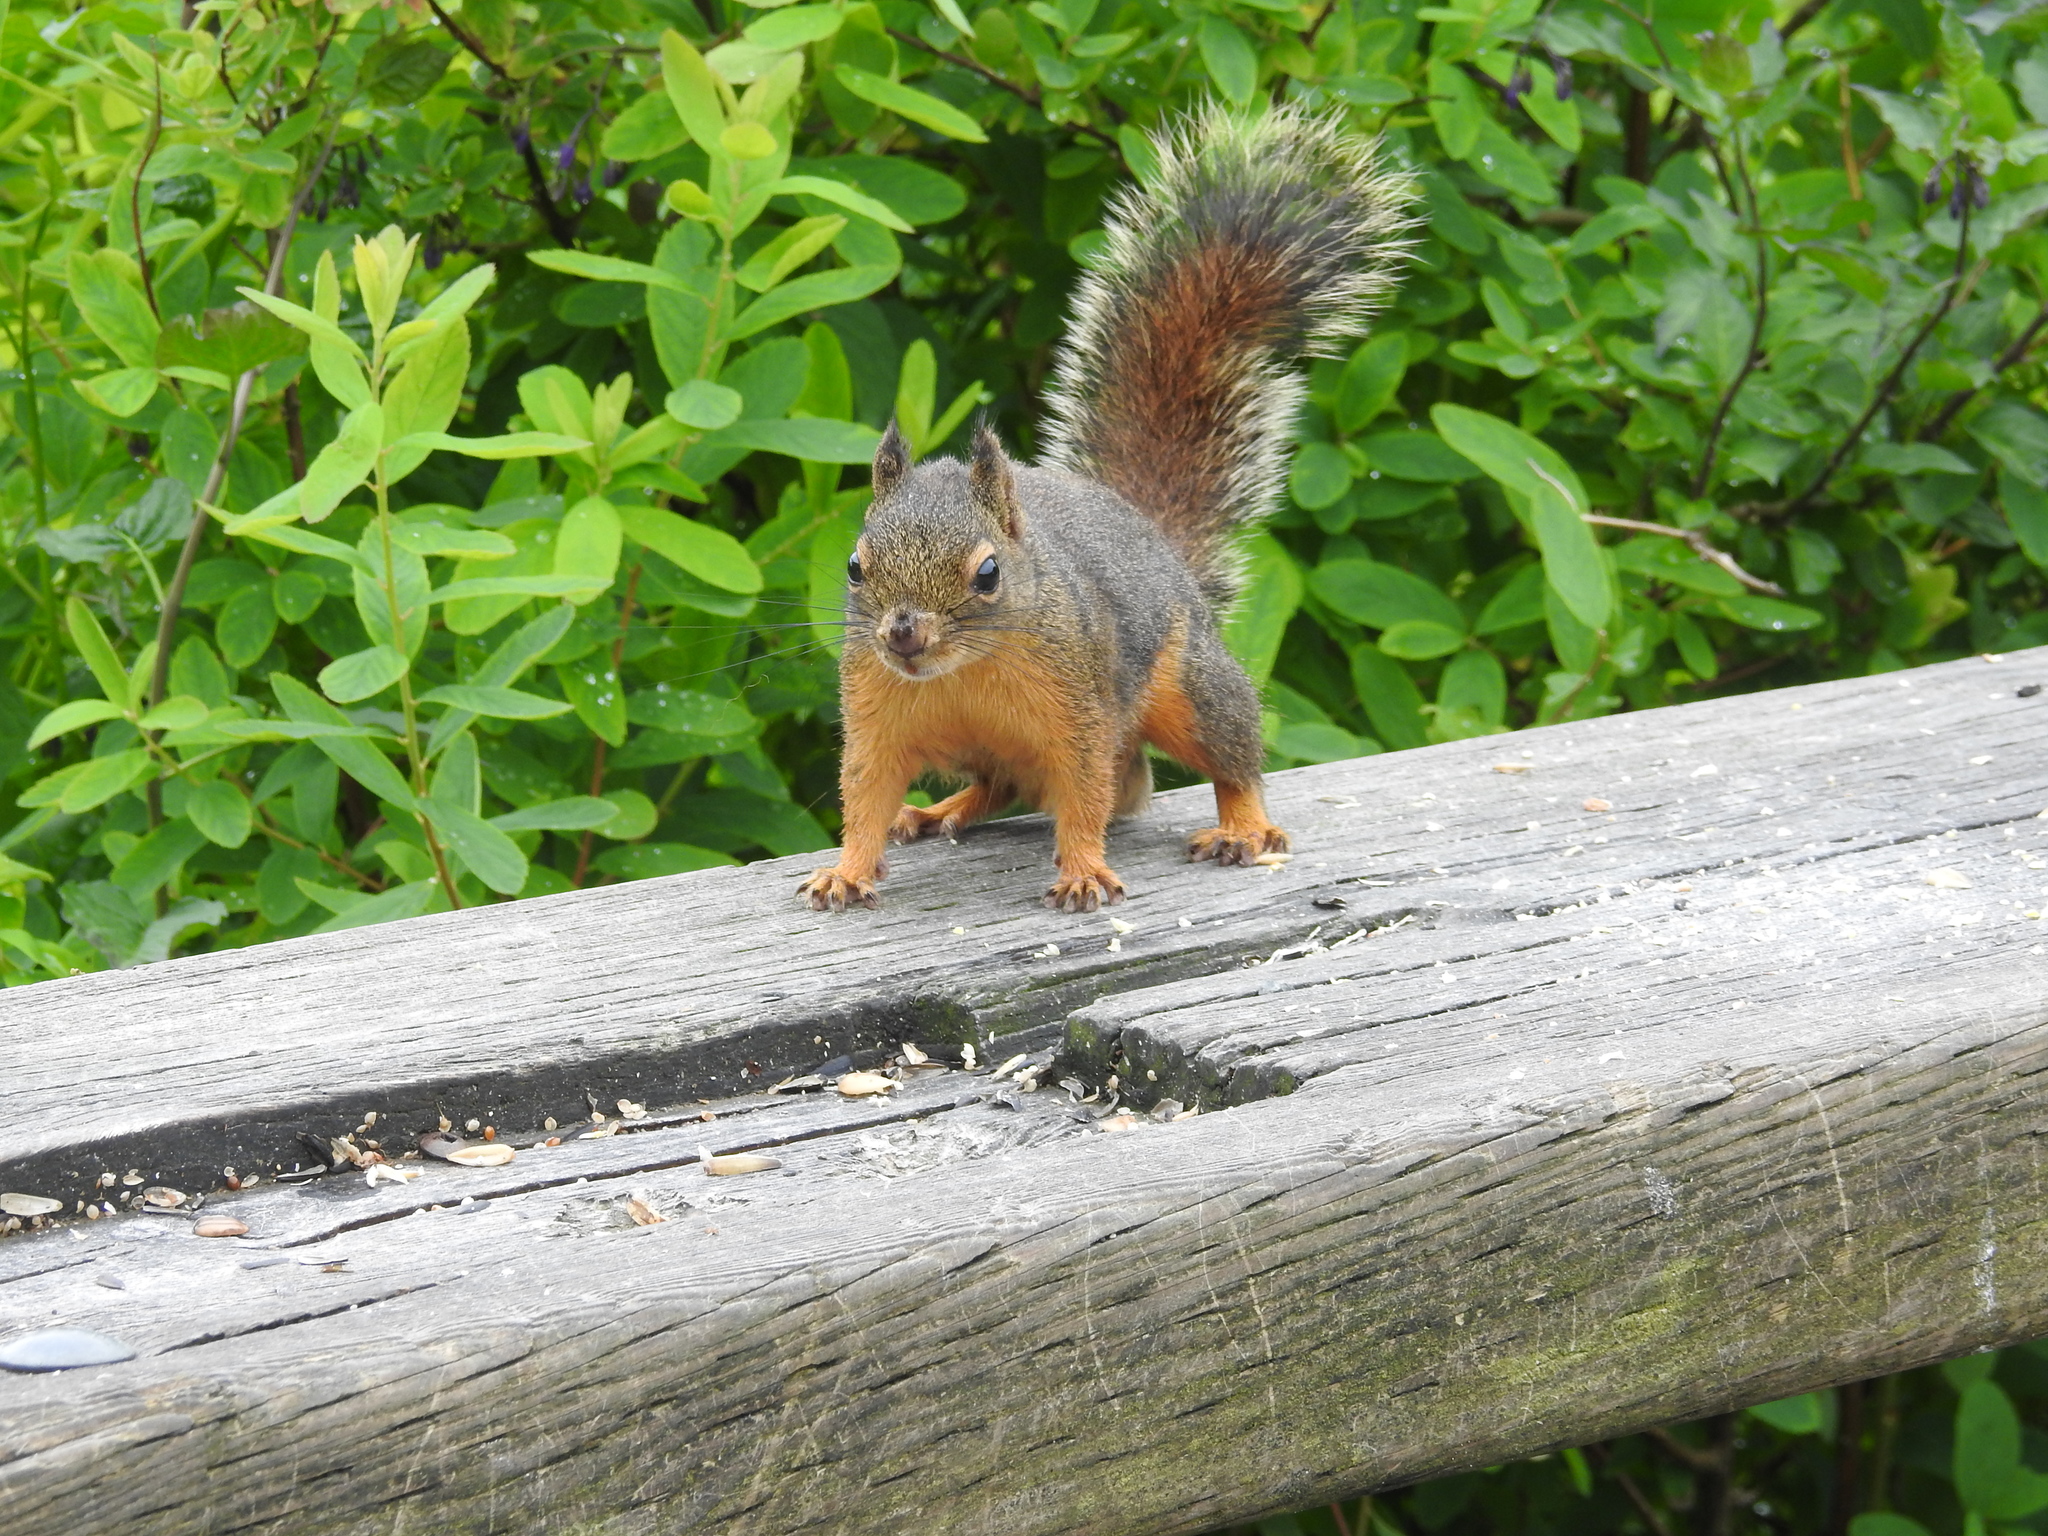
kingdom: Animalia
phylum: Chordata
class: Mammalia
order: Rodentia
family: Sciuridae
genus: Tamiasciurus
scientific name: Tamiasciurus douglasii
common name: Douglas's squirrel
